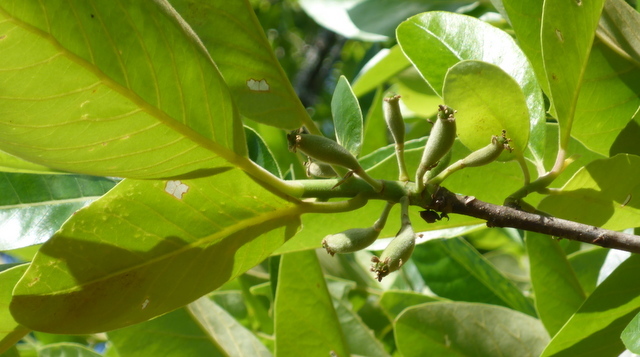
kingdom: Plantae
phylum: Tracheophyta
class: Magnoliopsida
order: Cornales
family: Nyssaceae
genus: Nyssa
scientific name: Nyssa ogeche
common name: Ogeechee tupelo
